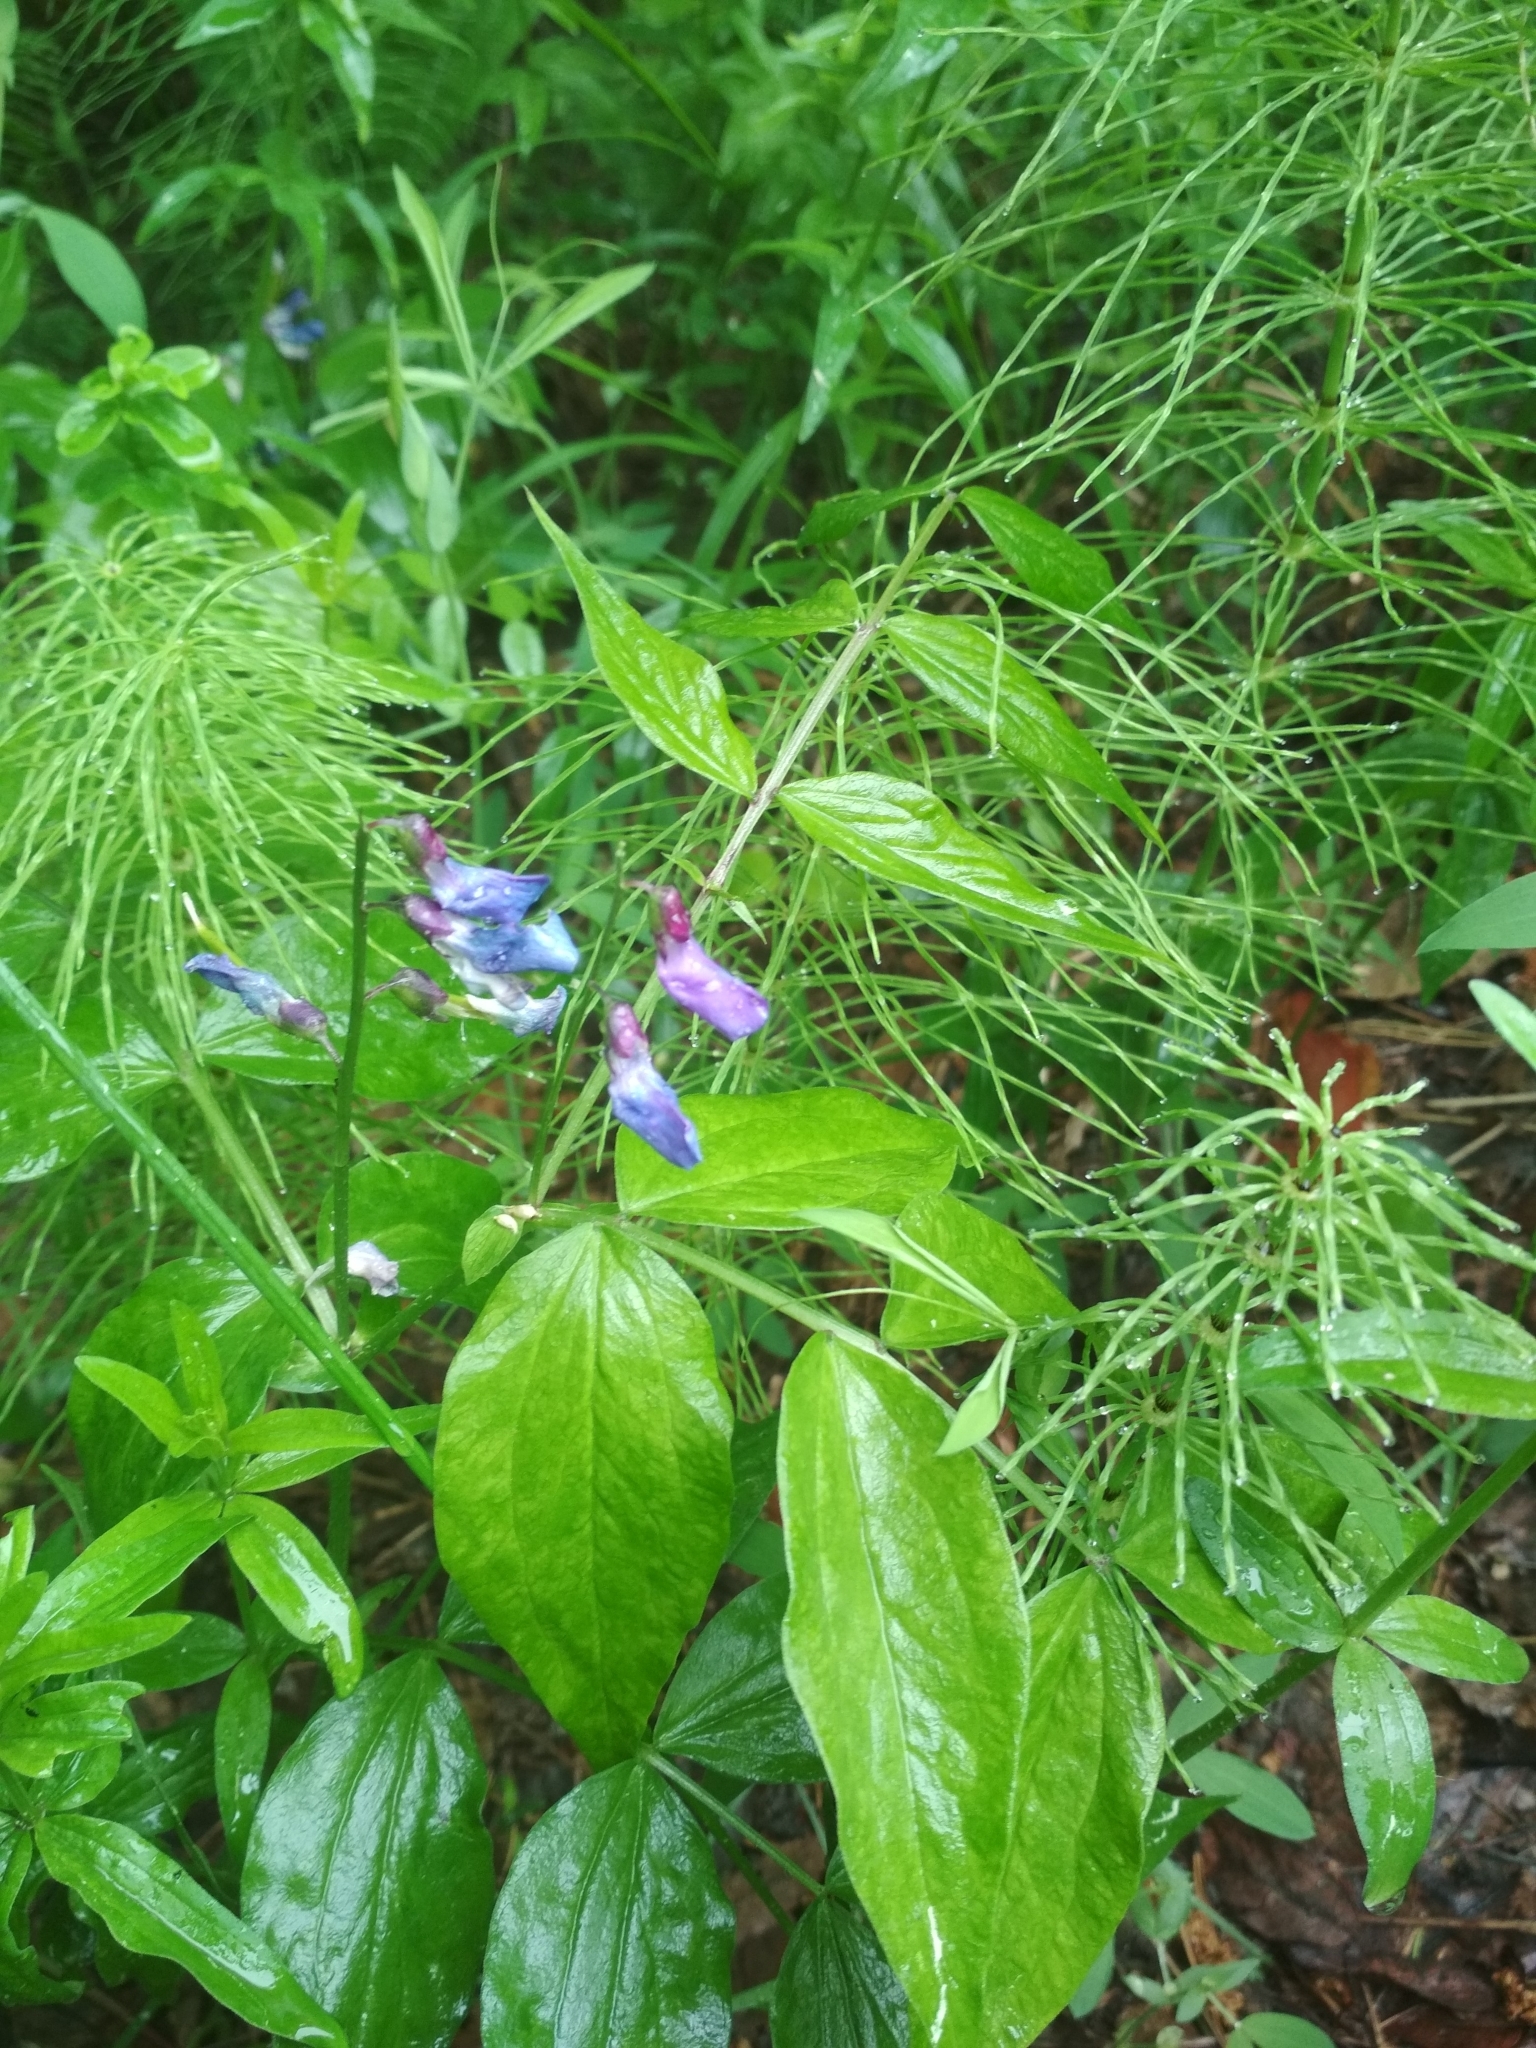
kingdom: Plantae
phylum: Tracheophyta
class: Magnoliopsida
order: Fabales
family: Fabaceae
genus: Lathyrus
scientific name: Lathyrus vernus
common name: Spring pea
